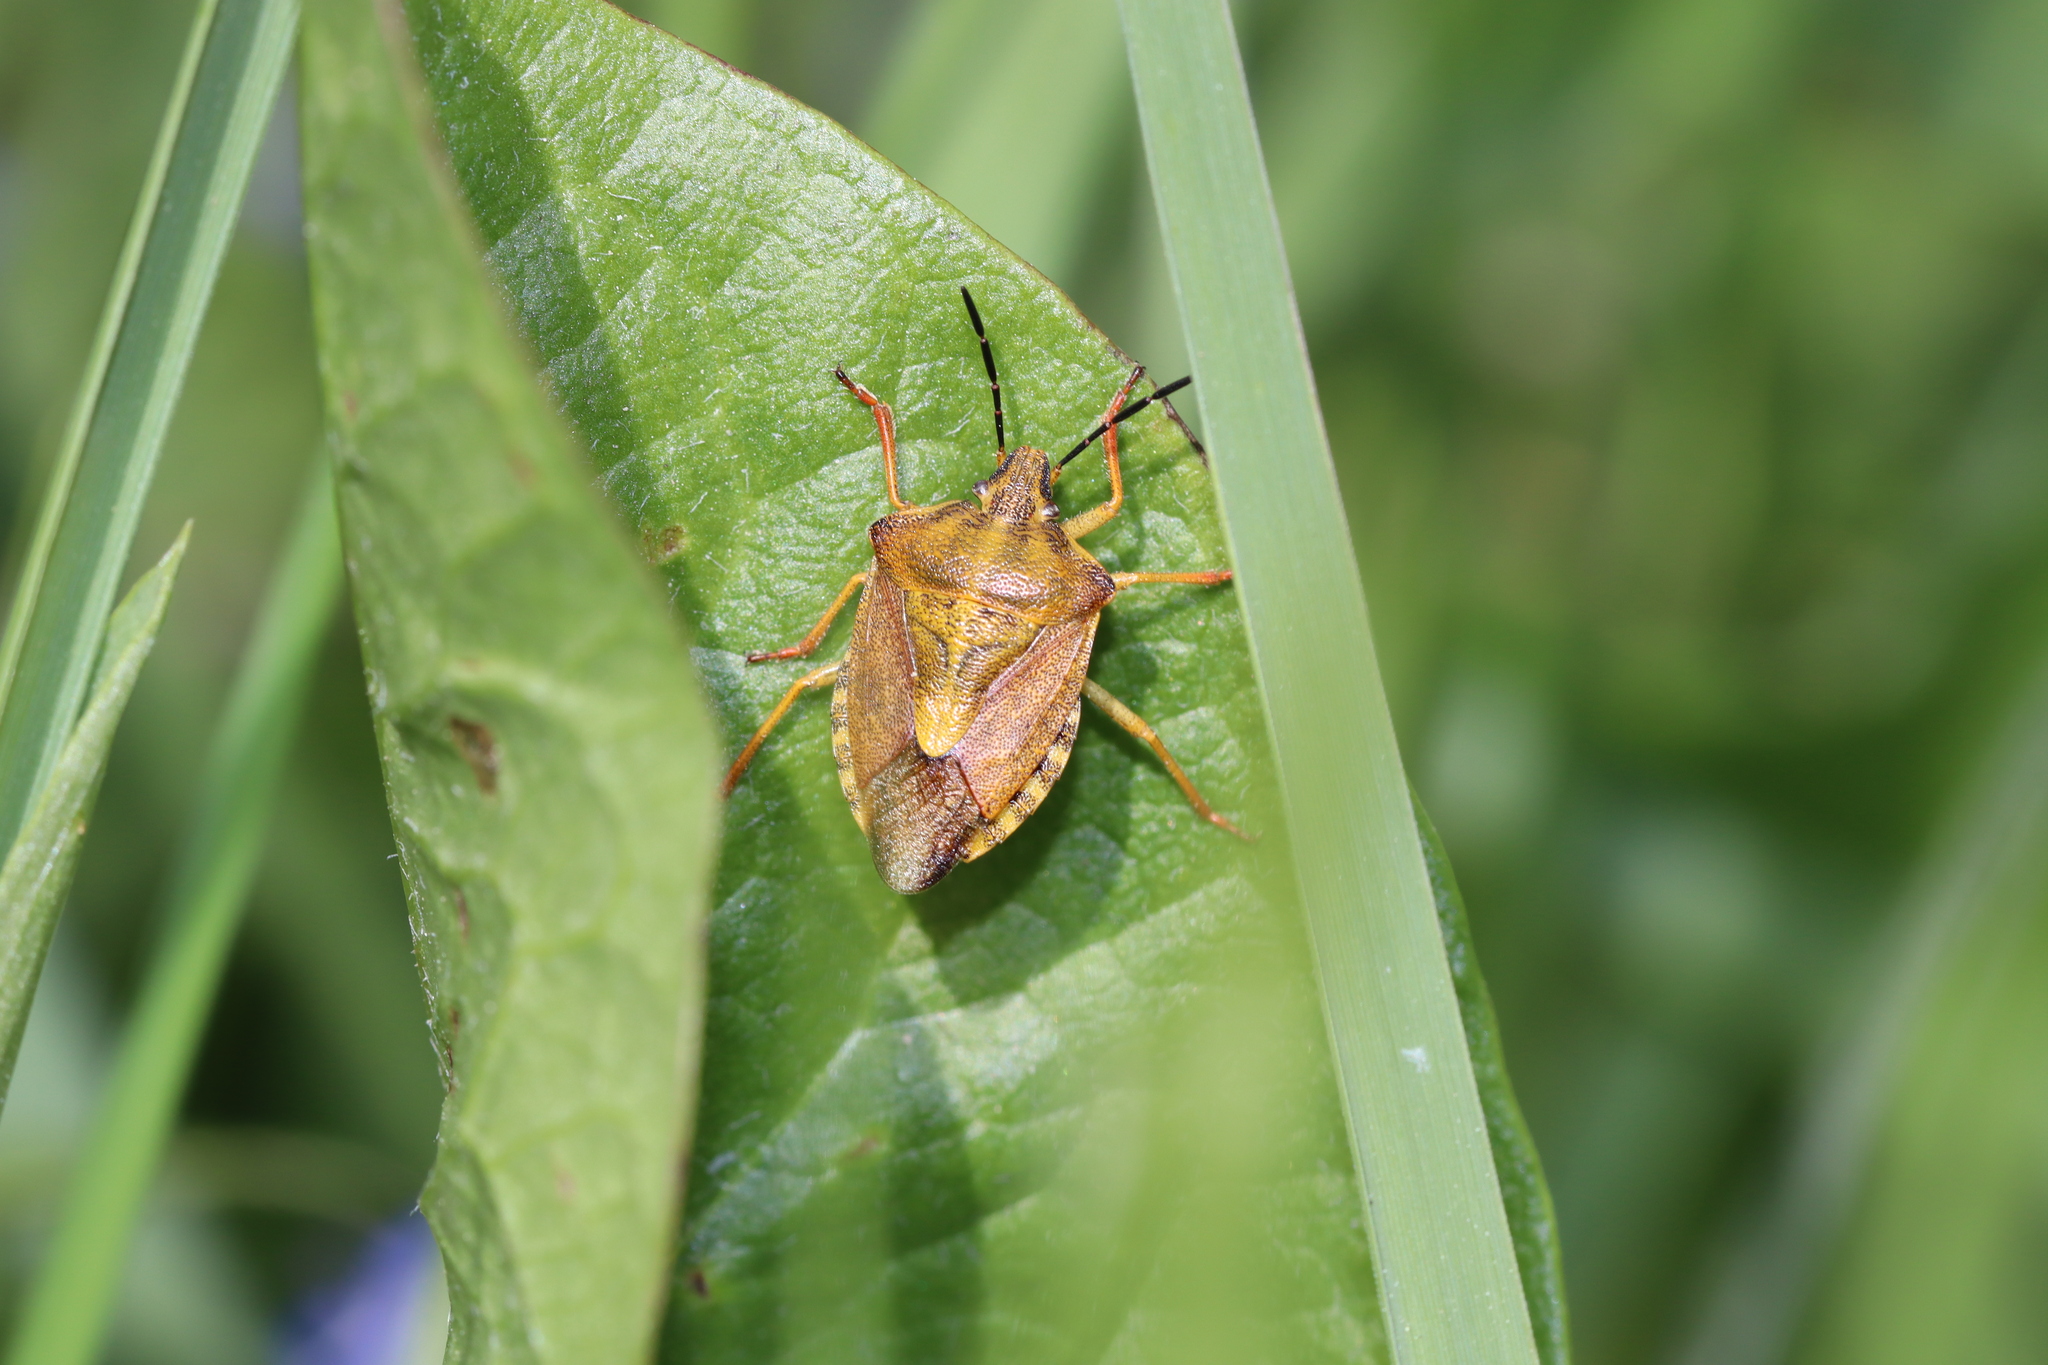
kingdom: Animalia
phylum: Arthropoda
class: Insecta
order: Hemiptera
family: Pentatomidae
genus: Carpocoris
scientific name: Carpocoris purpureipennis
